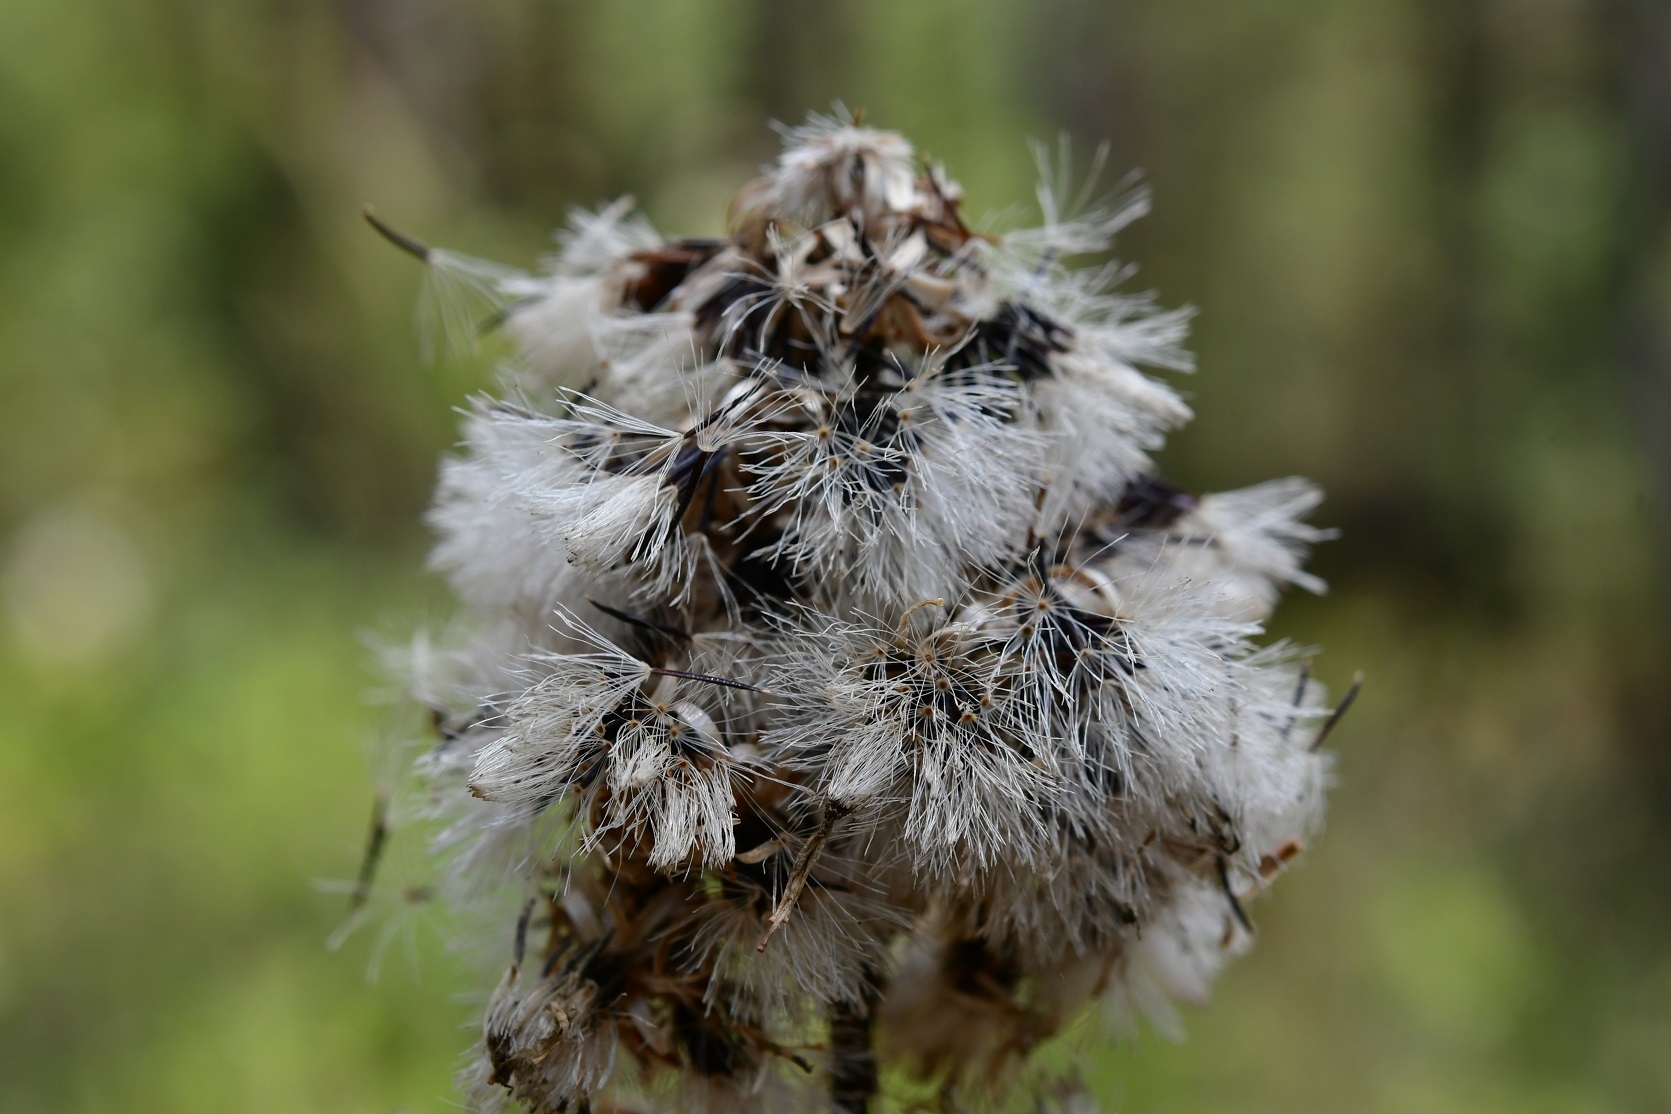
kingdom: Plantae
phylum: Tracheophyta
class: Magnoliopsida
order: Asterales
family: Asteraceae
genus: Ageratina
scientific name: Ageratina mairetiana
